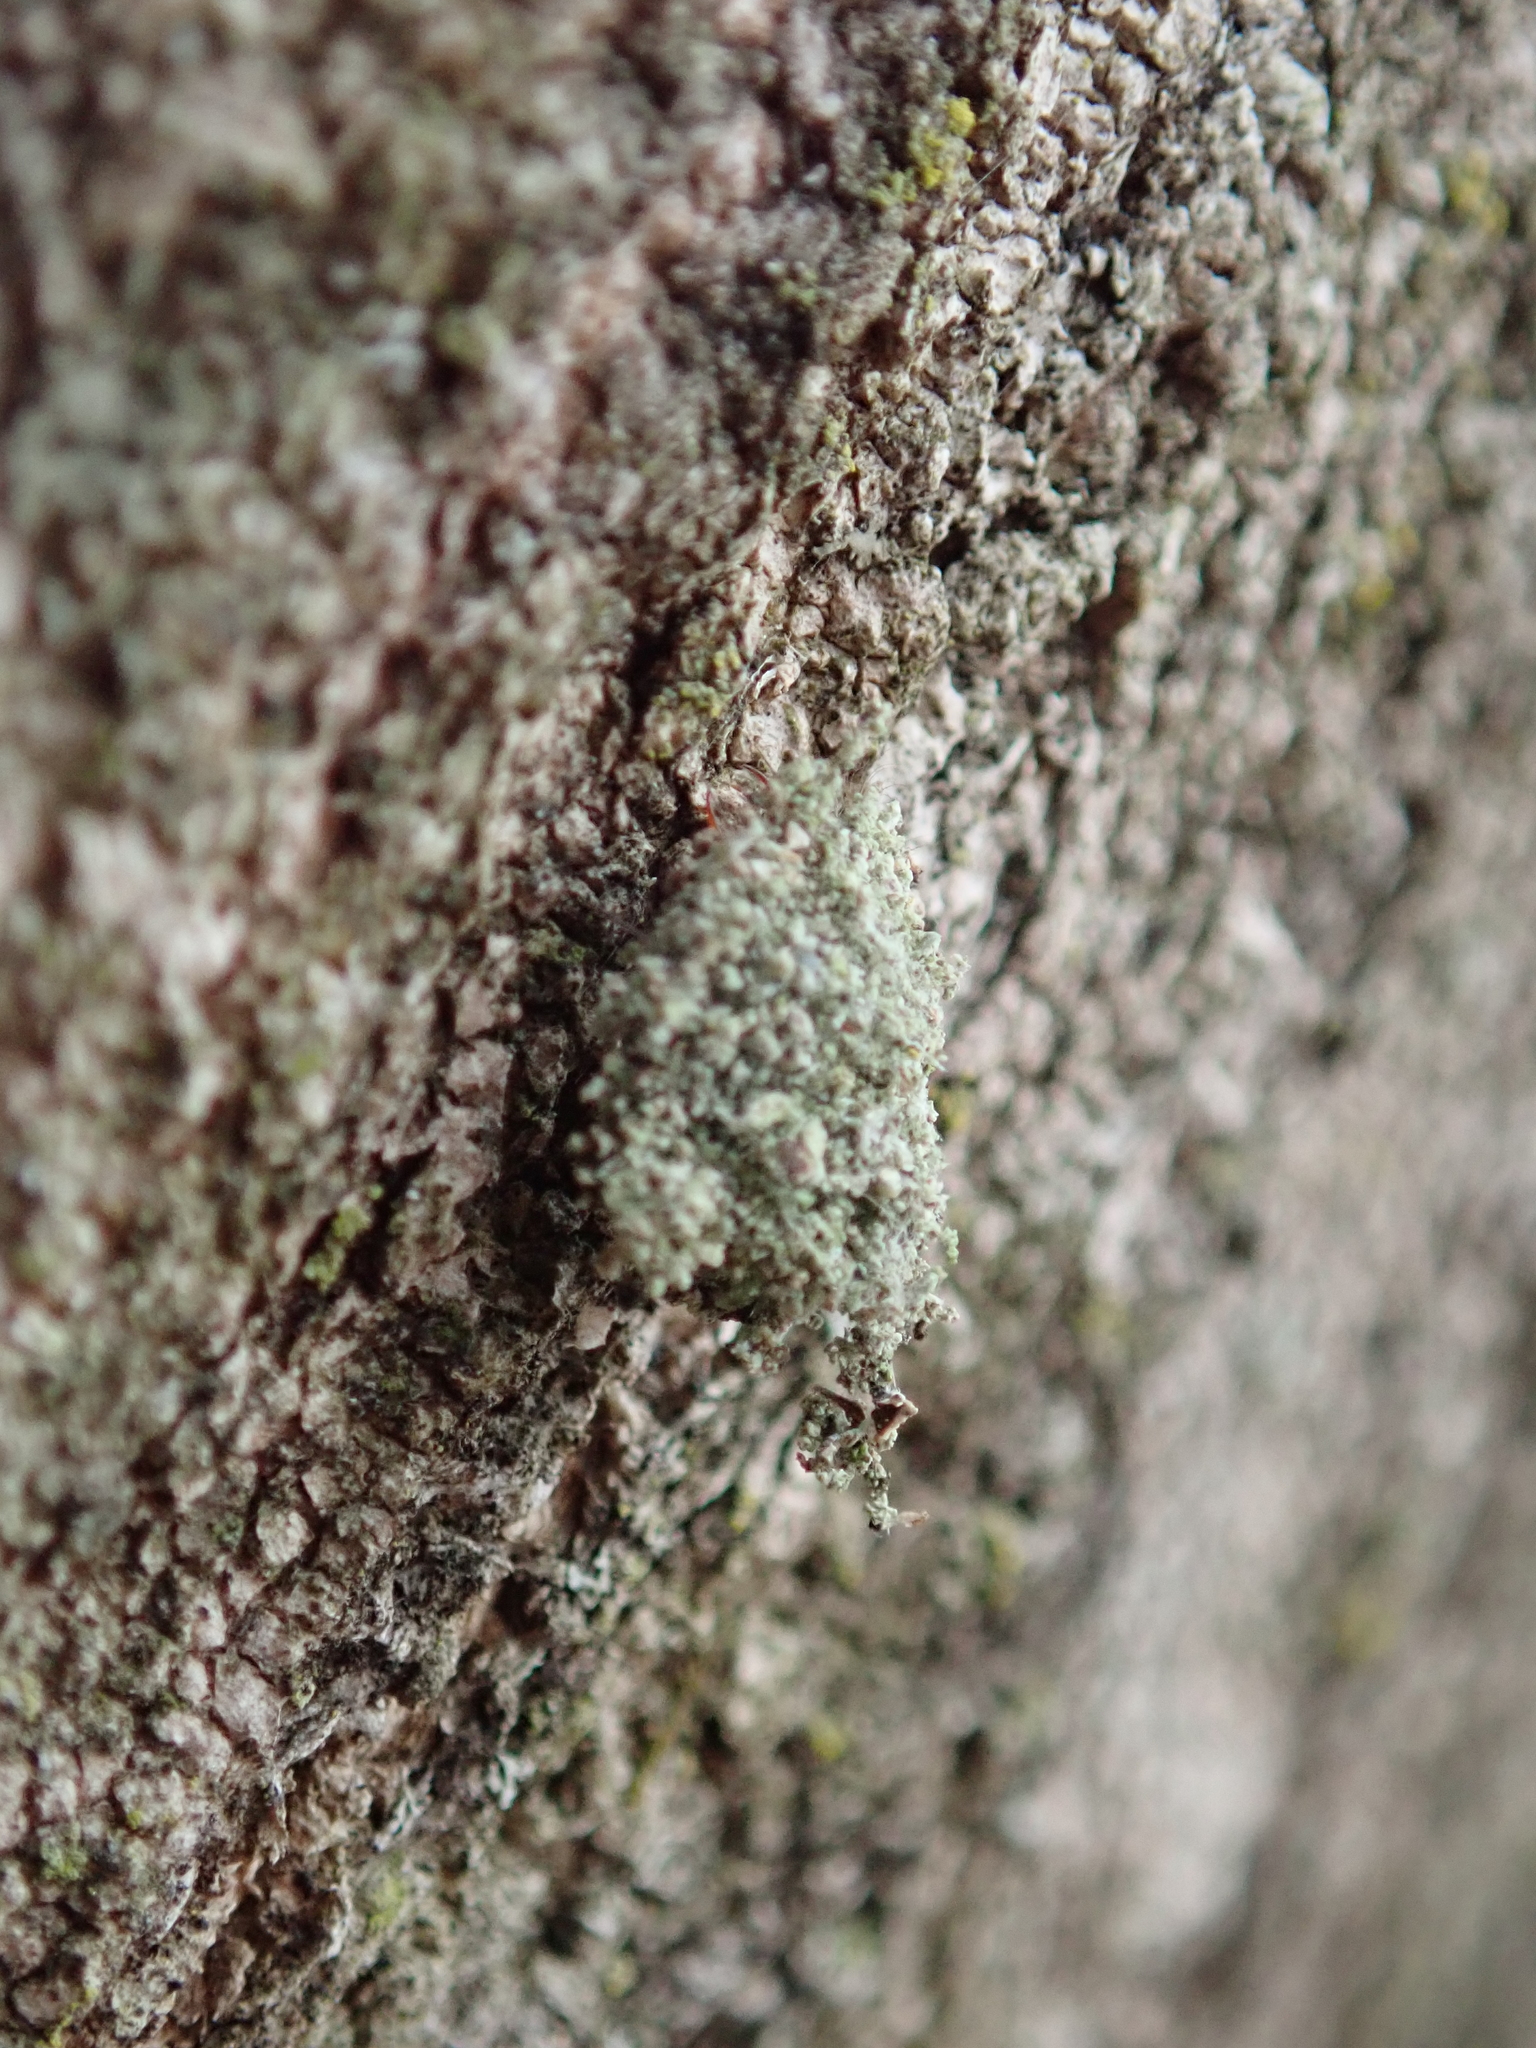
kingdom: Animalia
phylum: Arthropoda
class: Insecta
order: Neuroptera
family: Chrysopidae
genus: Leucochrysa
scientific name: Leucochrysa pavida
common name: Lichen-carrying green lacewing
